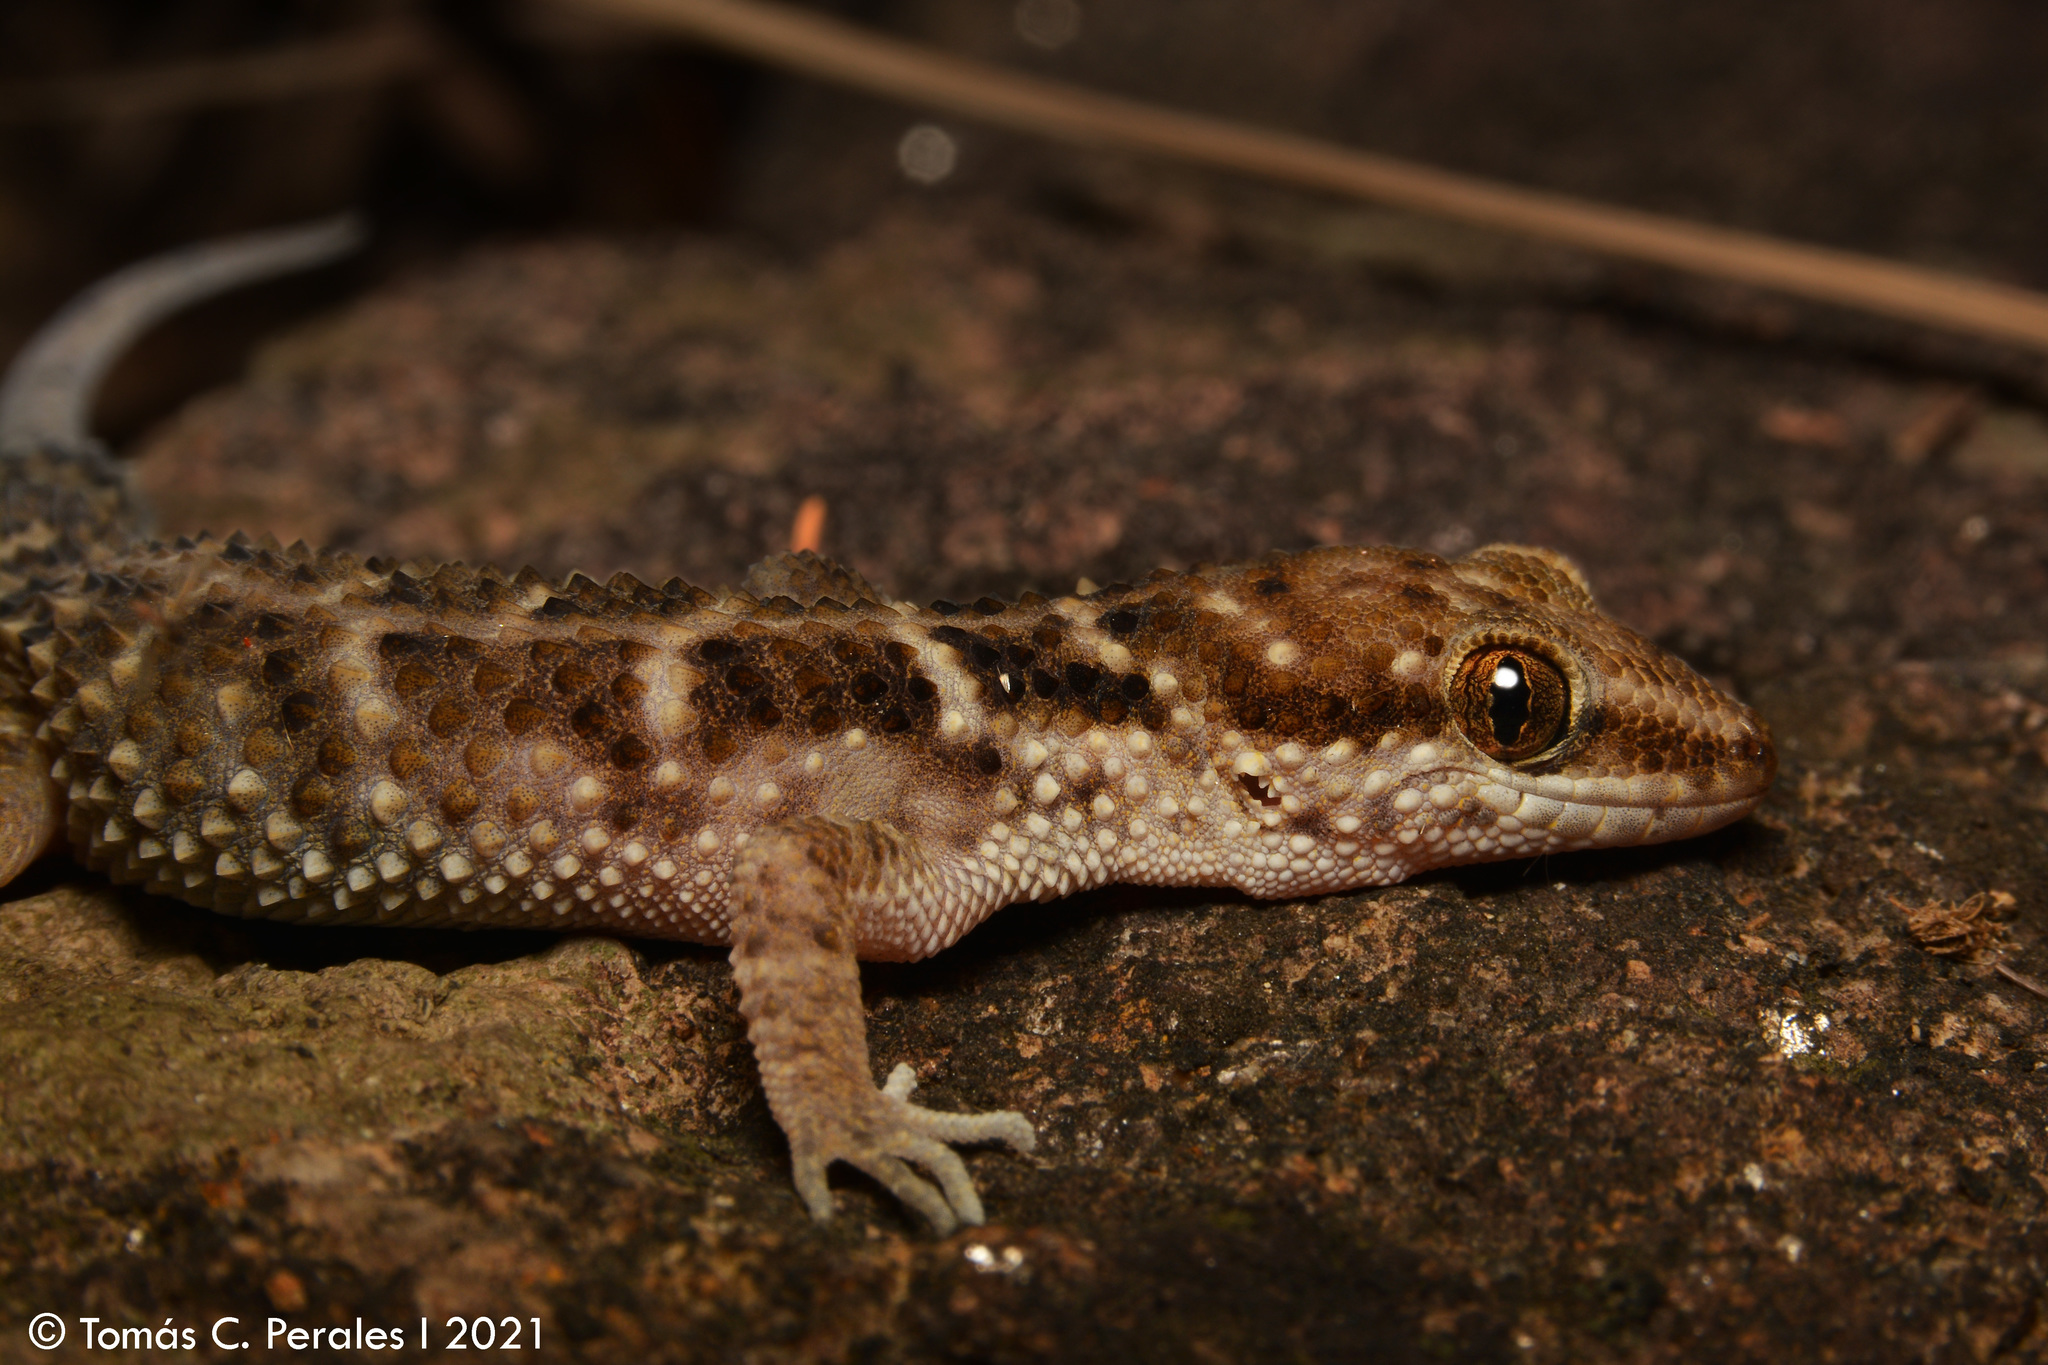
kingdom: Animalia
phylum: Chordata
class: Squamata
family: Phyllodactylidae
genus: Homonota
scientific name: Homonota horrida
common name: South american marked gecko
